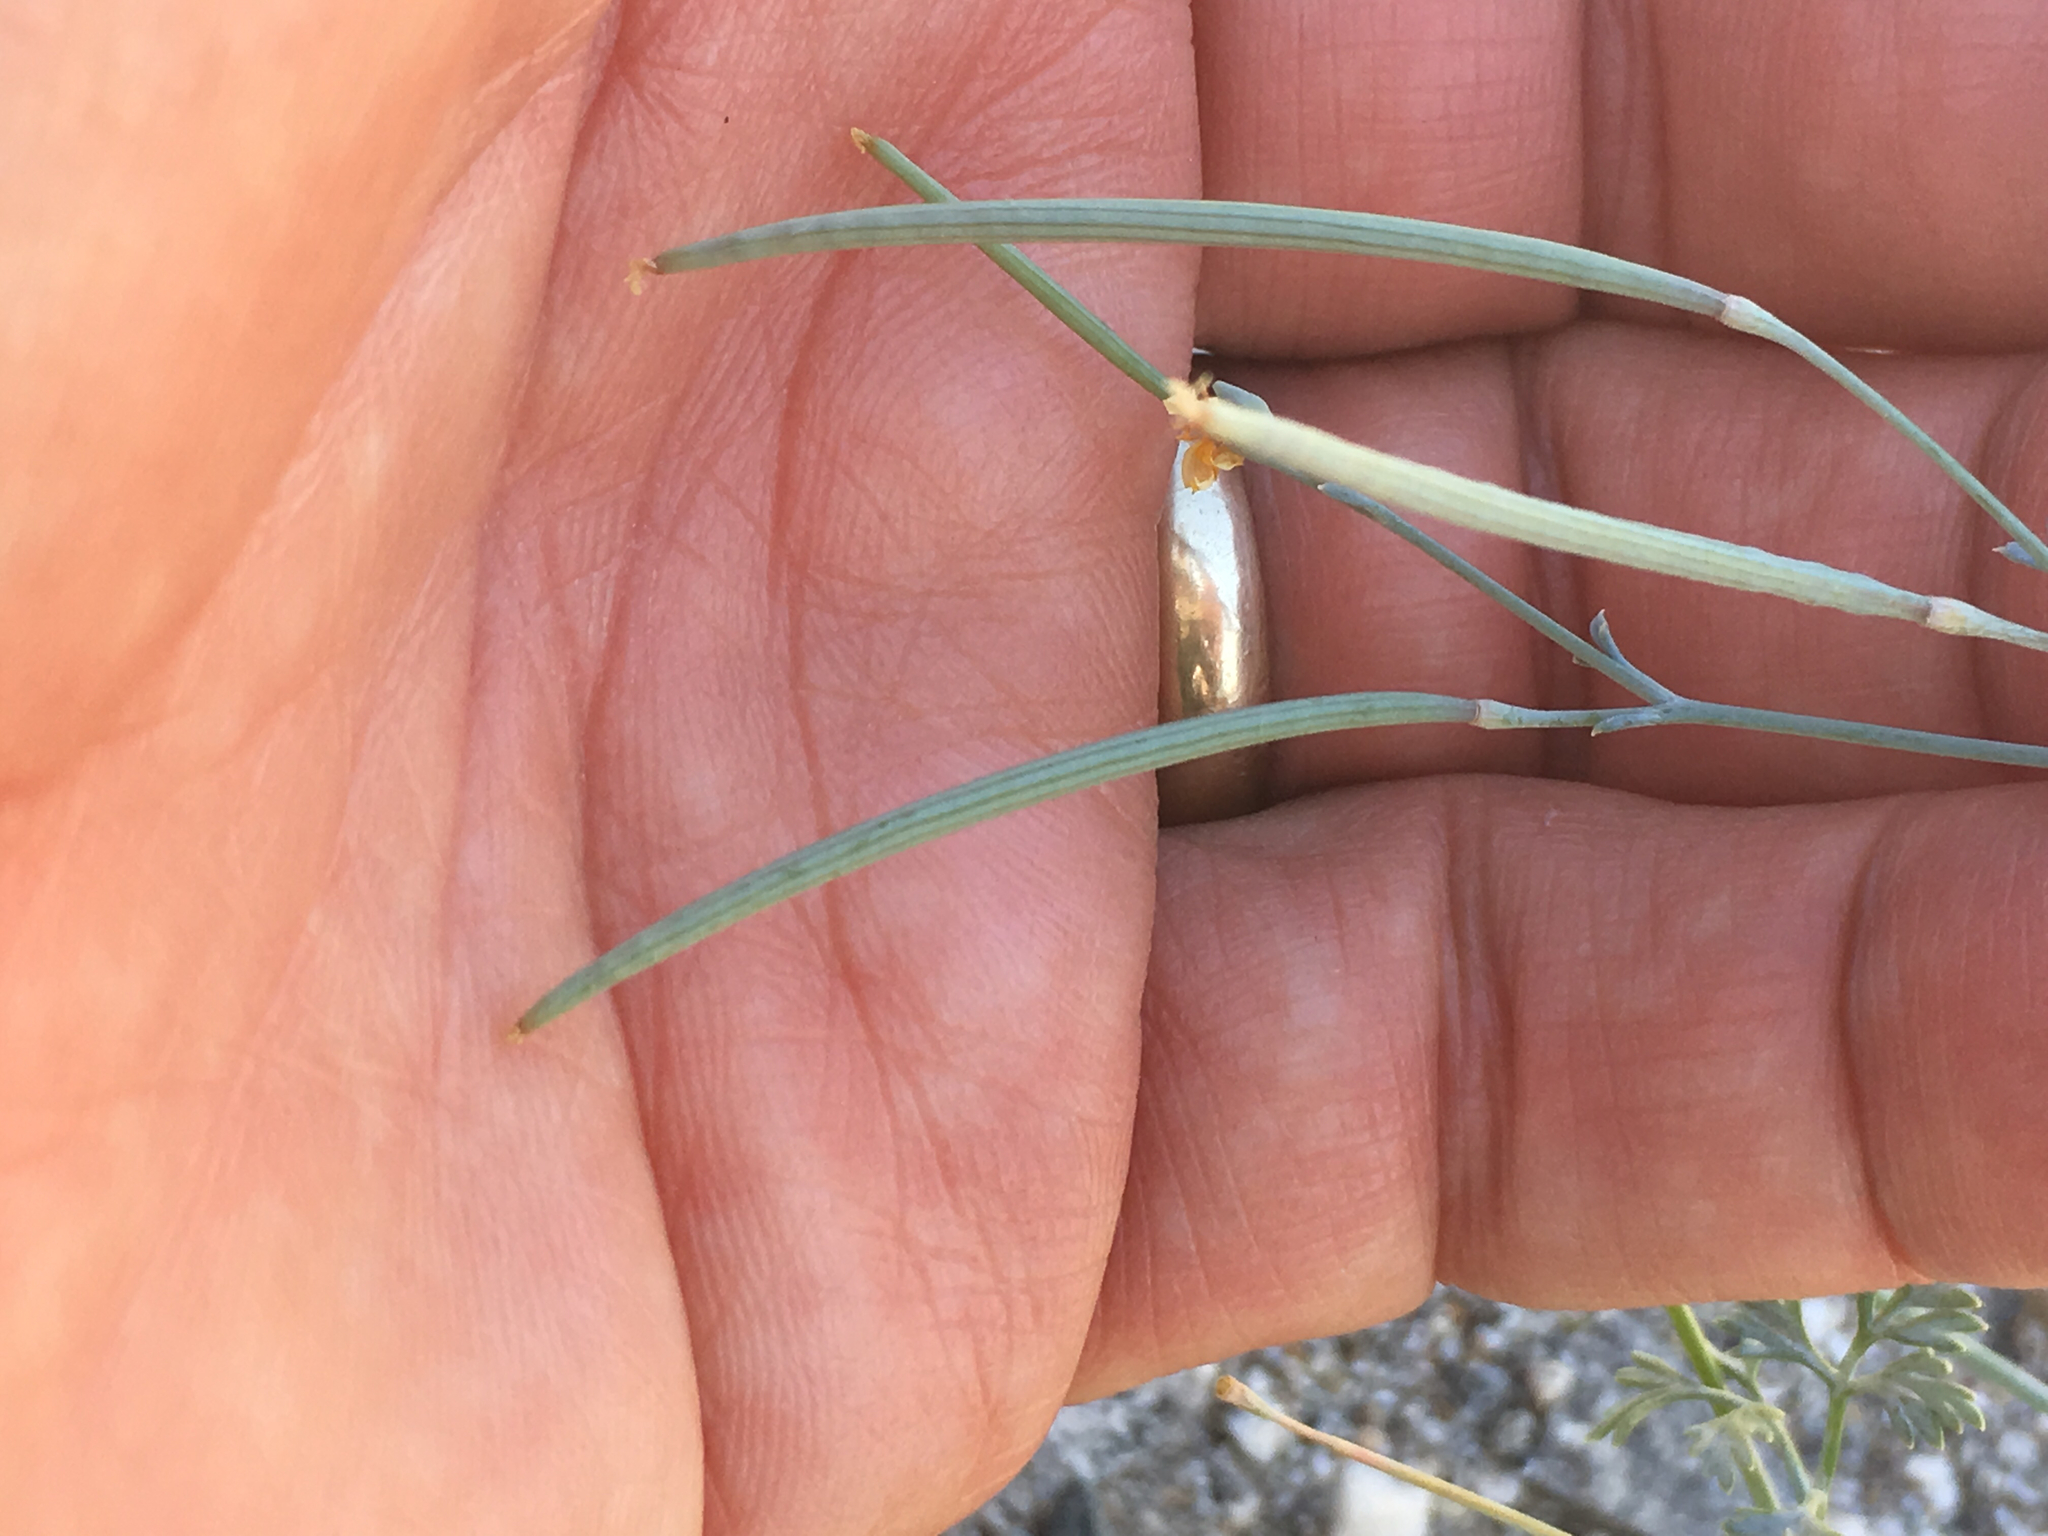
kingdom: Plantae
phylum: Tracheophyta
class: Magnoliopsida
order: Ranunculales
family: Papaveraceae
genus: Eschscholzia
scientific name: Eschscholzia minutiflora
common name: Small-flower california-poppy
